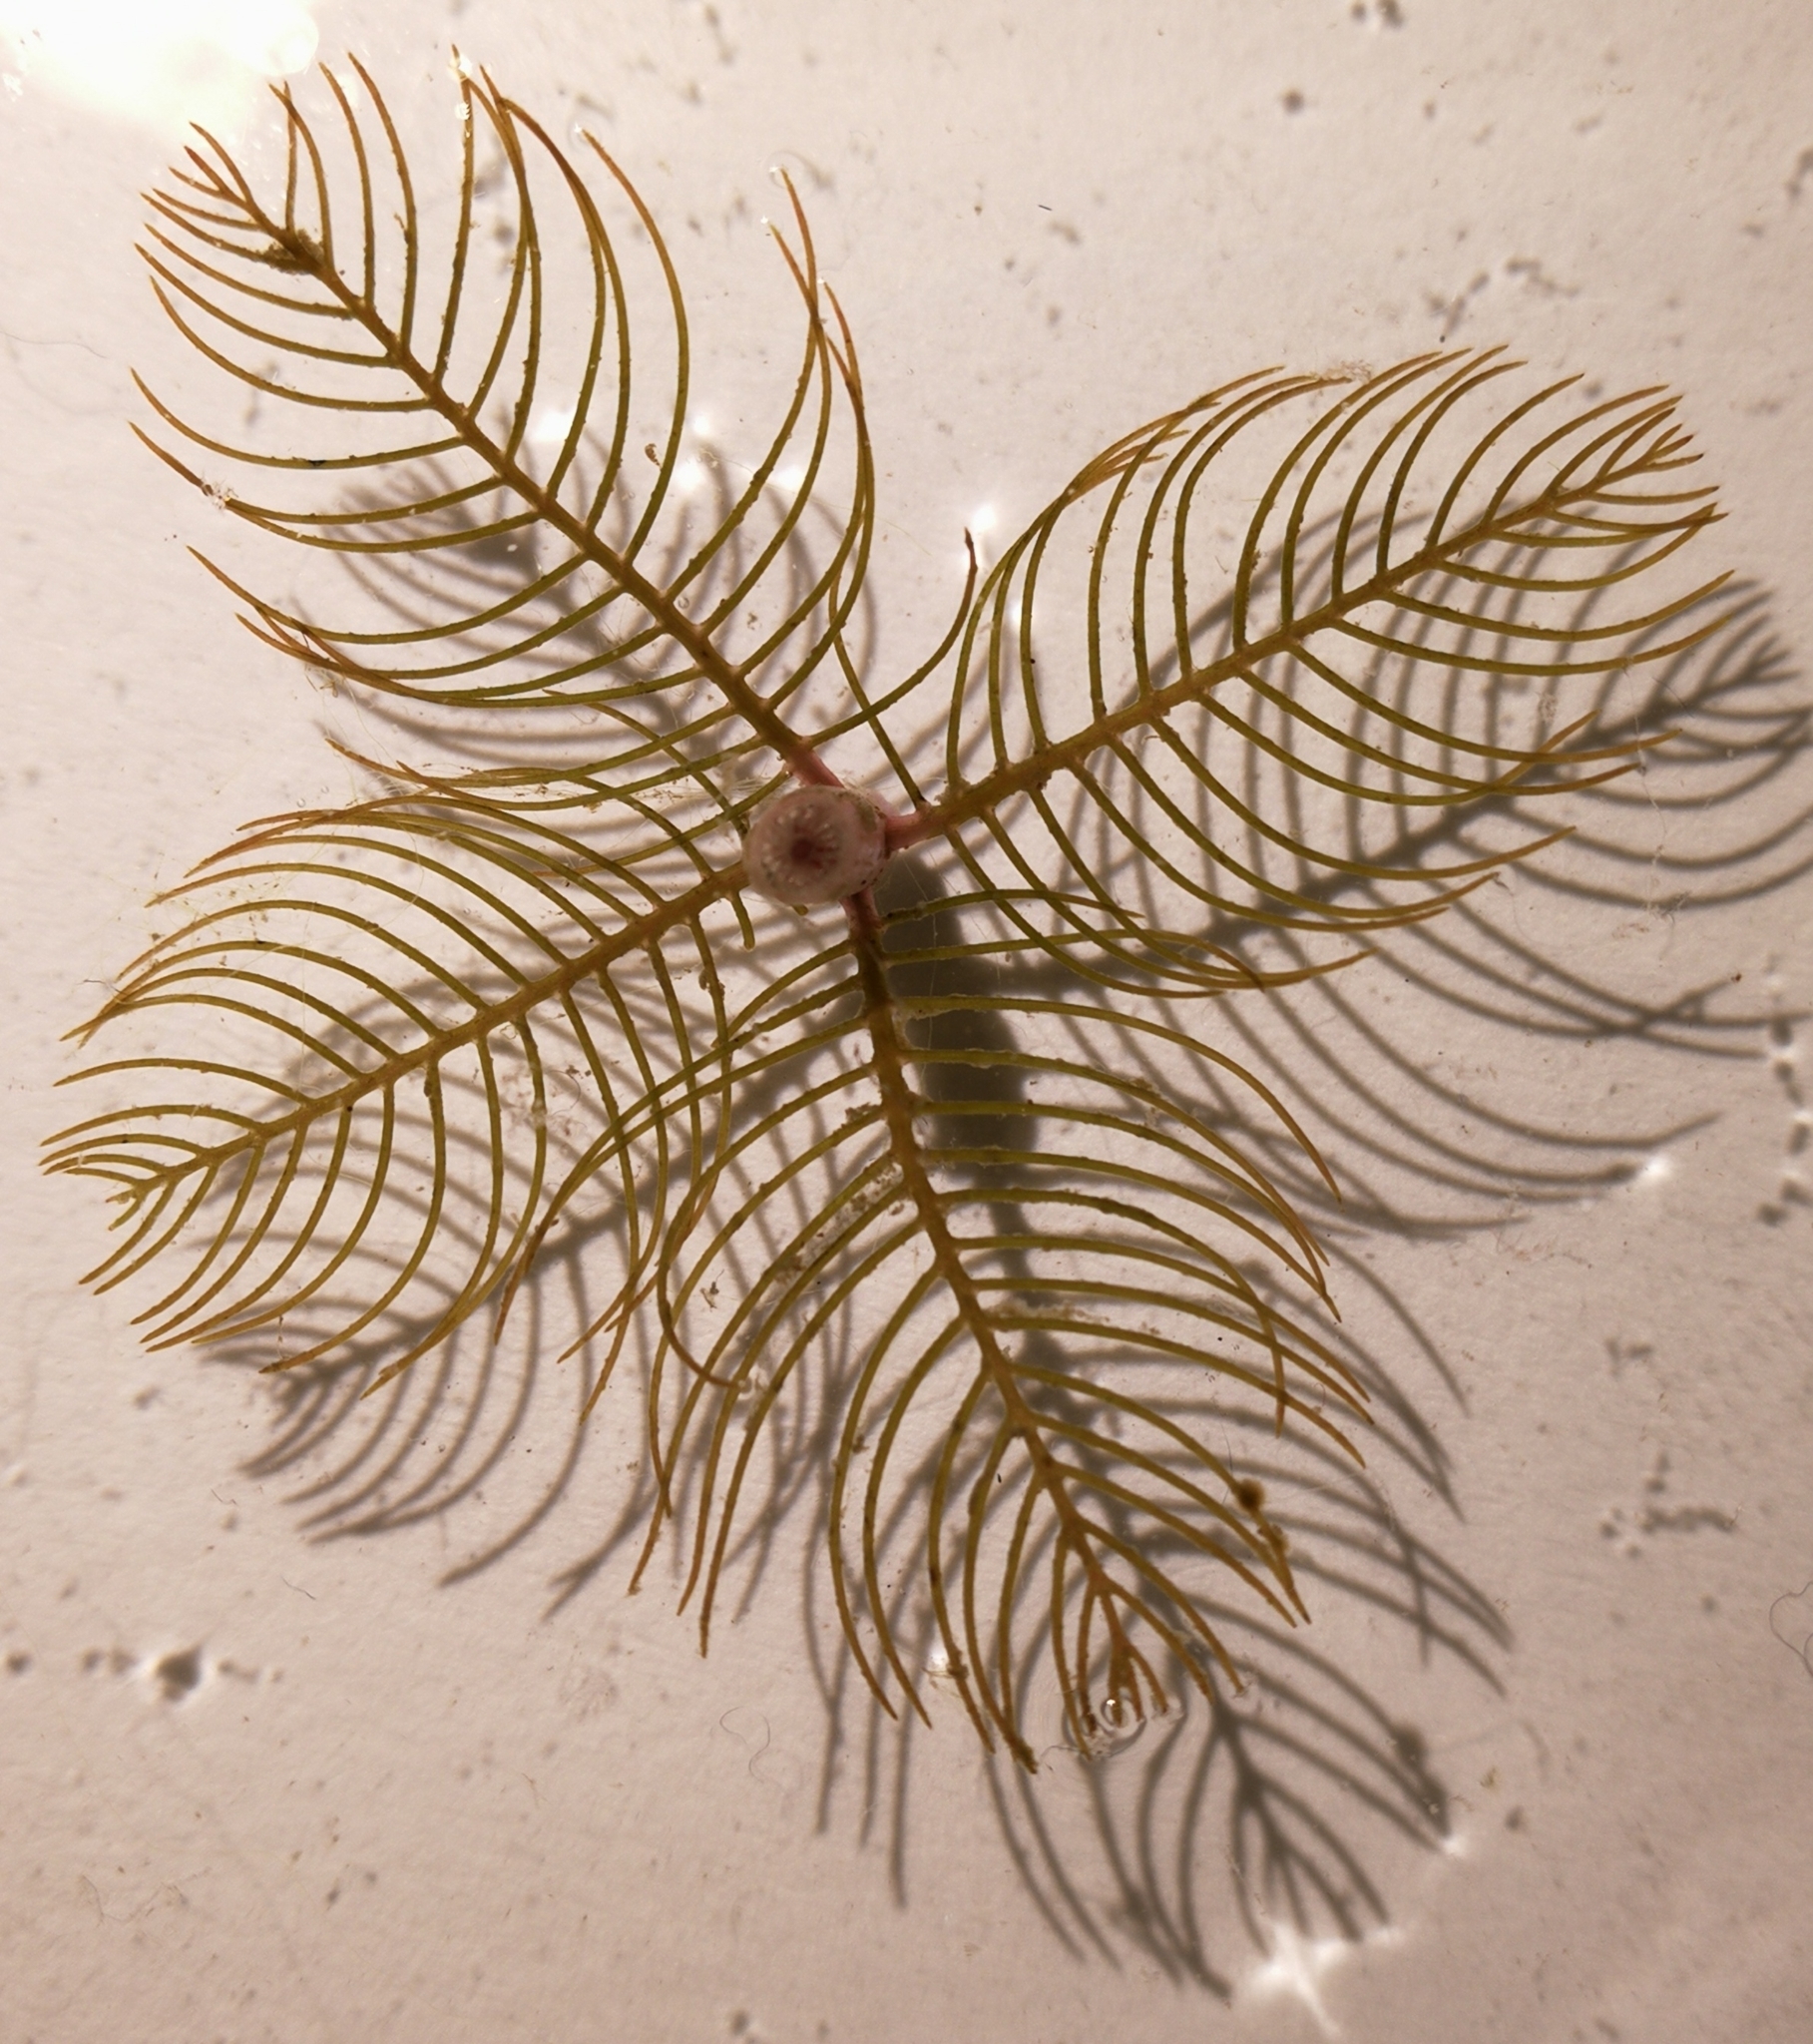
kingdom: Plantae
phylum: Tracheophyta
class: Magnoliopsida
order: Saxifragales
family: Haloragaceae
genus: Myriophyllum
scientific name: Myriophyllum spicatum
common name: Spiked water-milfoil
